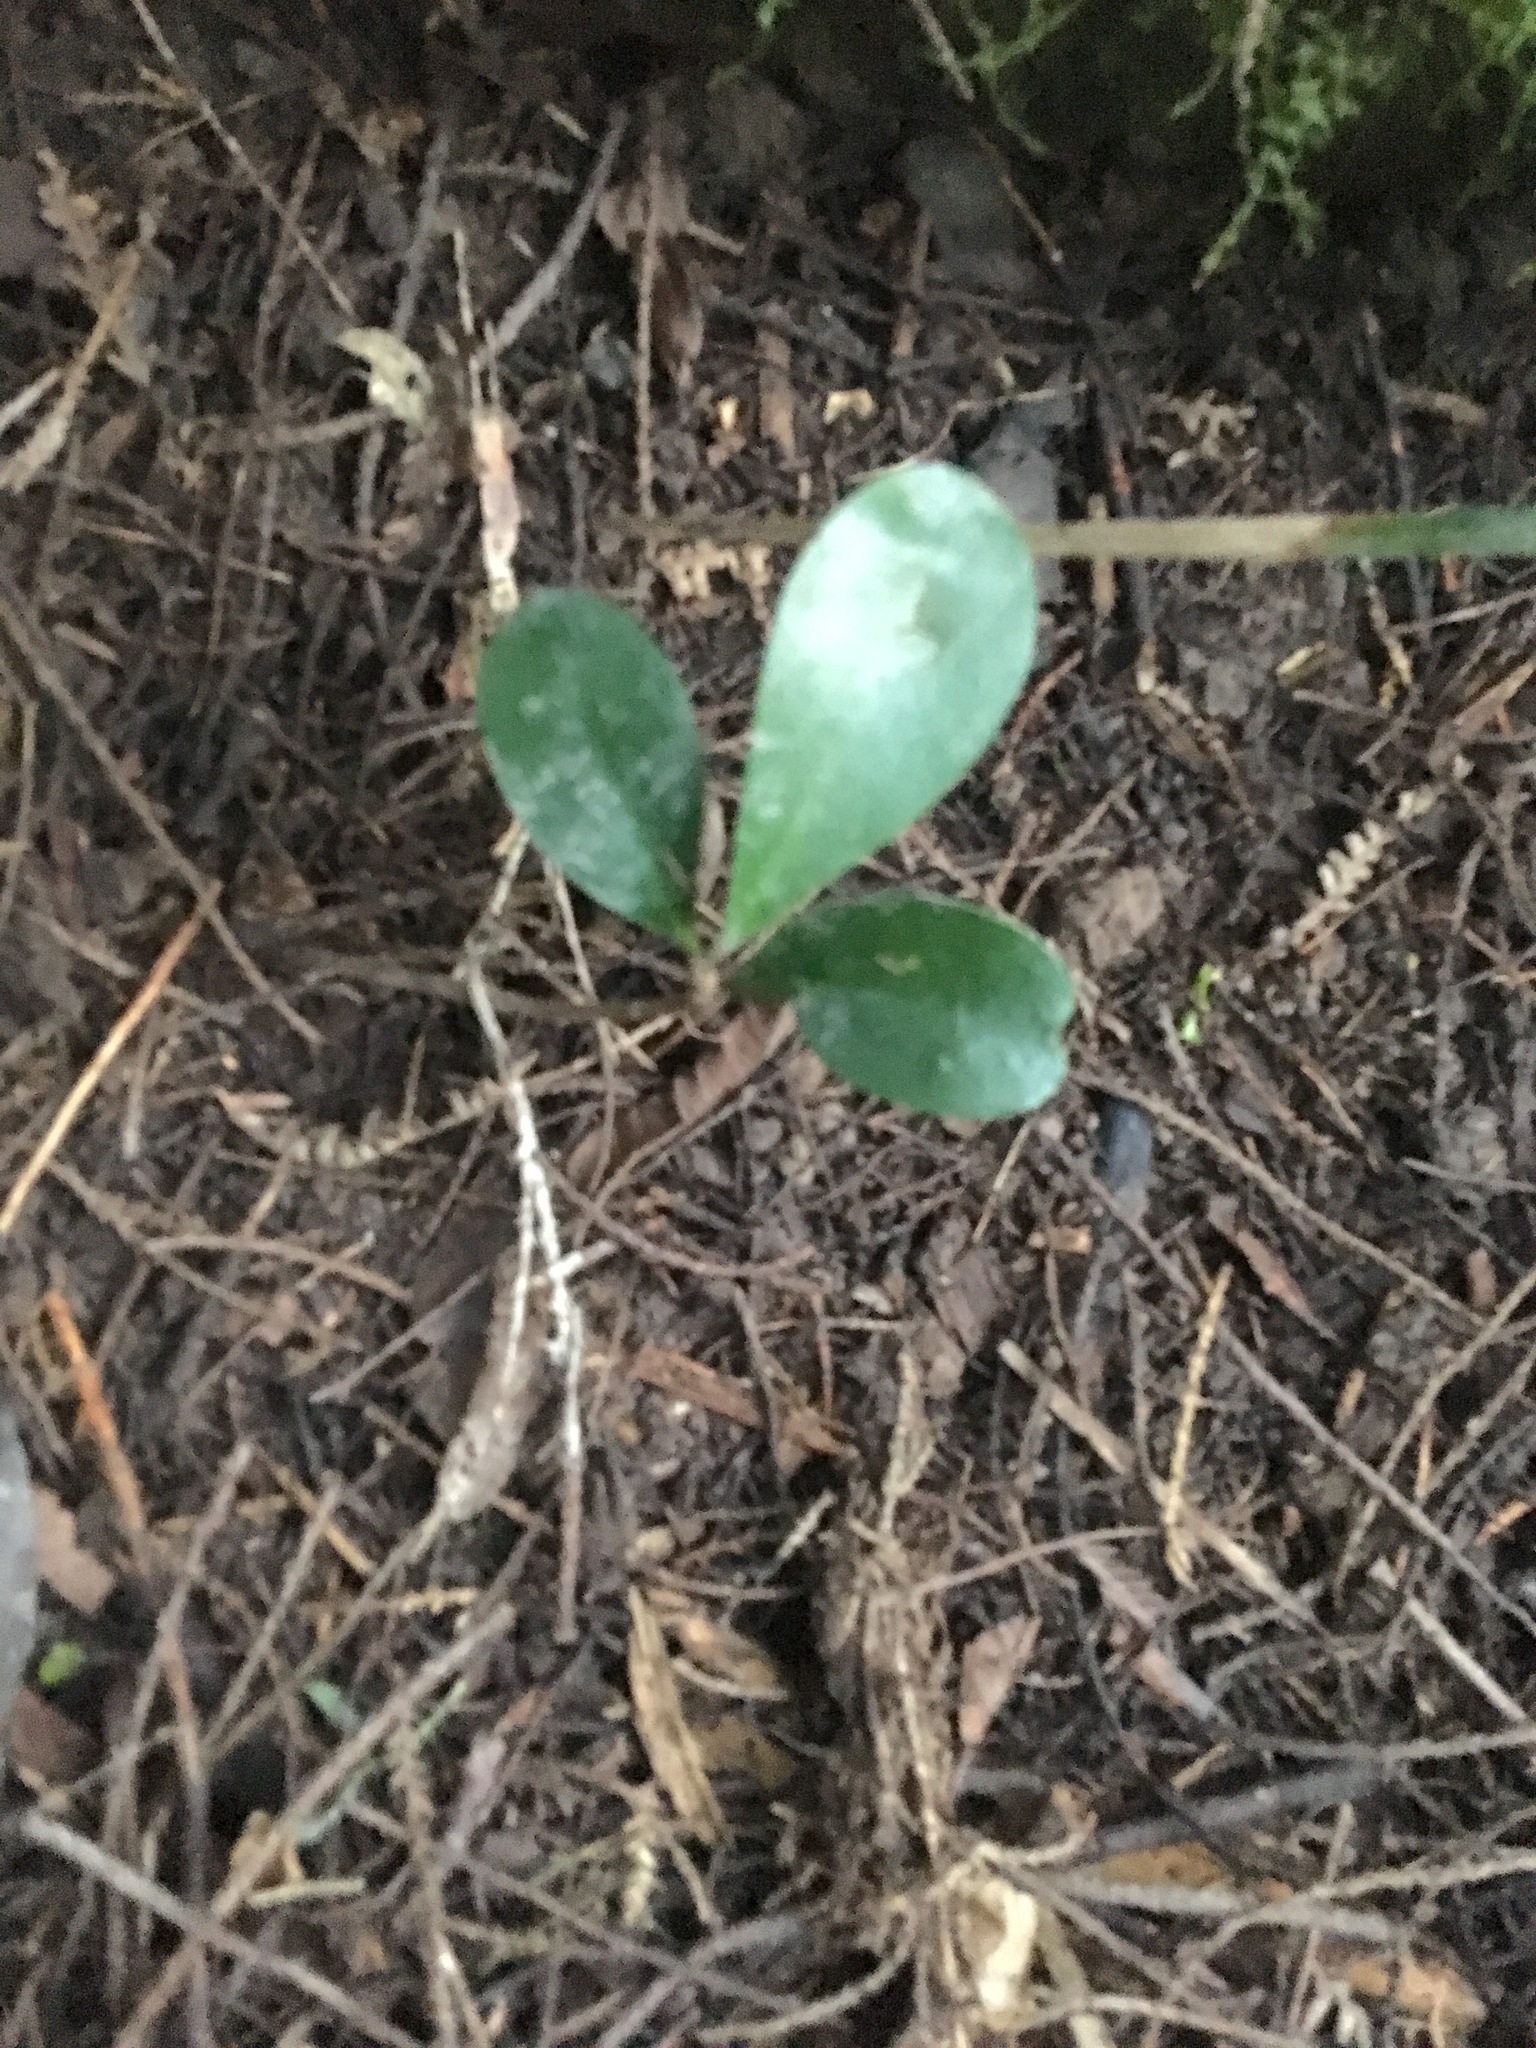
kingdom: Plantae
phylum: Tracheophyta
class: Magnoliopsida
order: Cucurbitales
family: Corynocarpaceae
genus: Corynocarpus
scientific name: Corynocarpus laevigatus
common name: New zealand laurel
